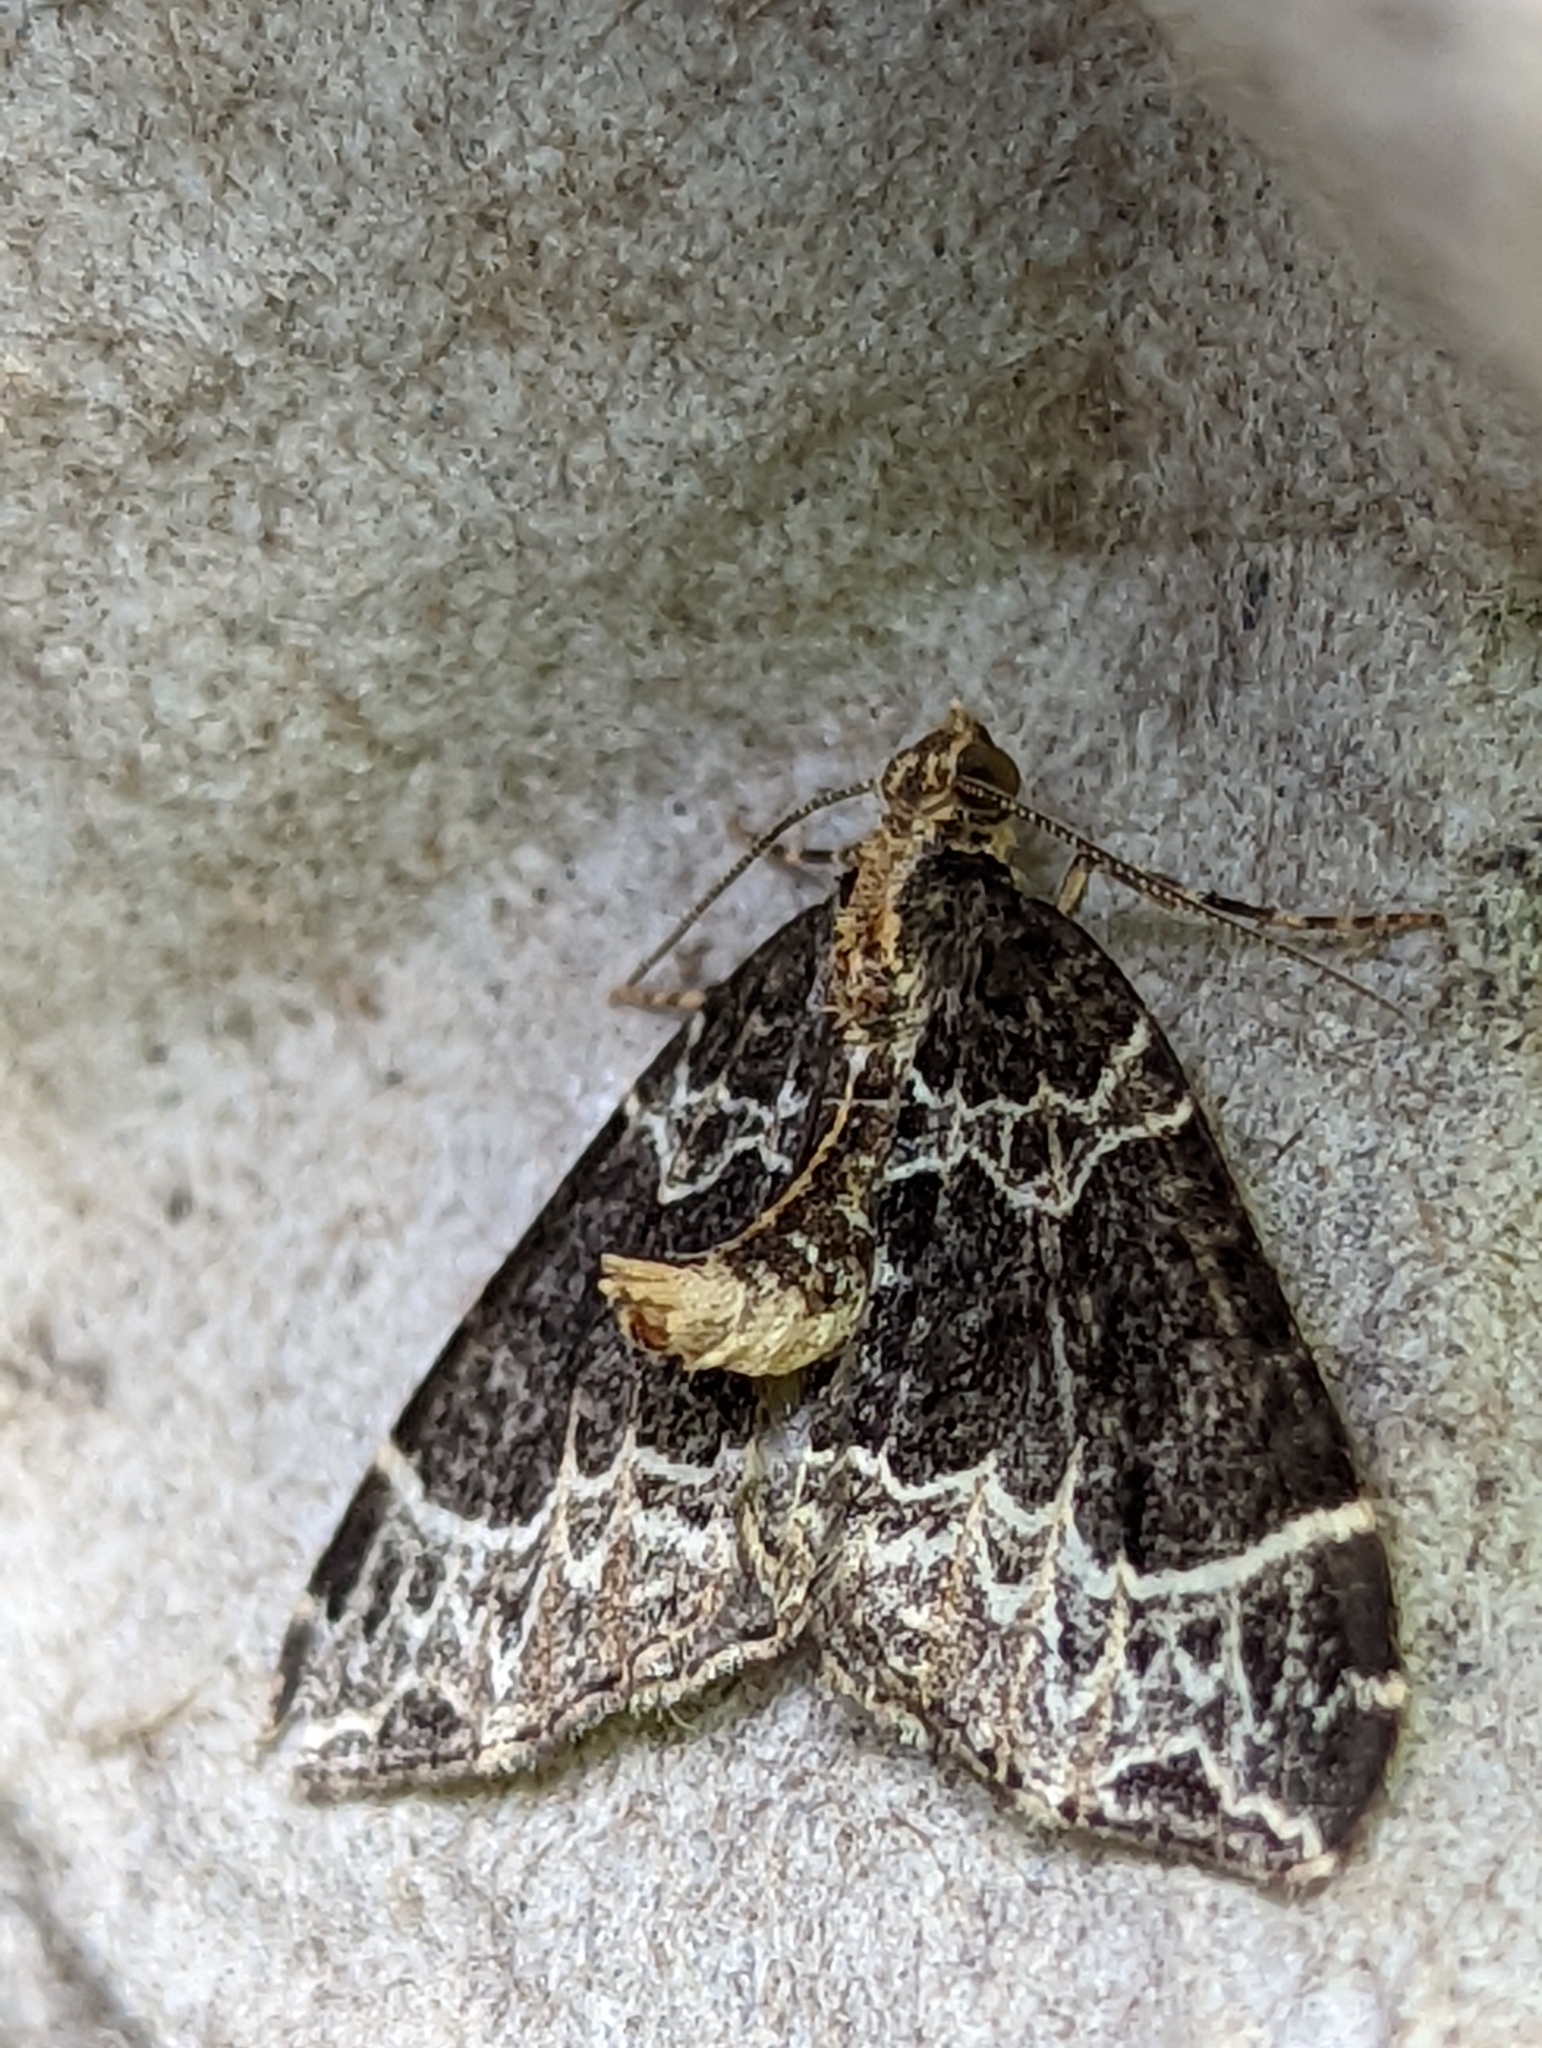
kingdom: Animalia
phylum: Arthropoda
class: Insecta
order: Lepidoptera
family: Geometridae
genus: Ecliptopera
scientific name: Ecliptopera silaceata
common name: Small phoenix
